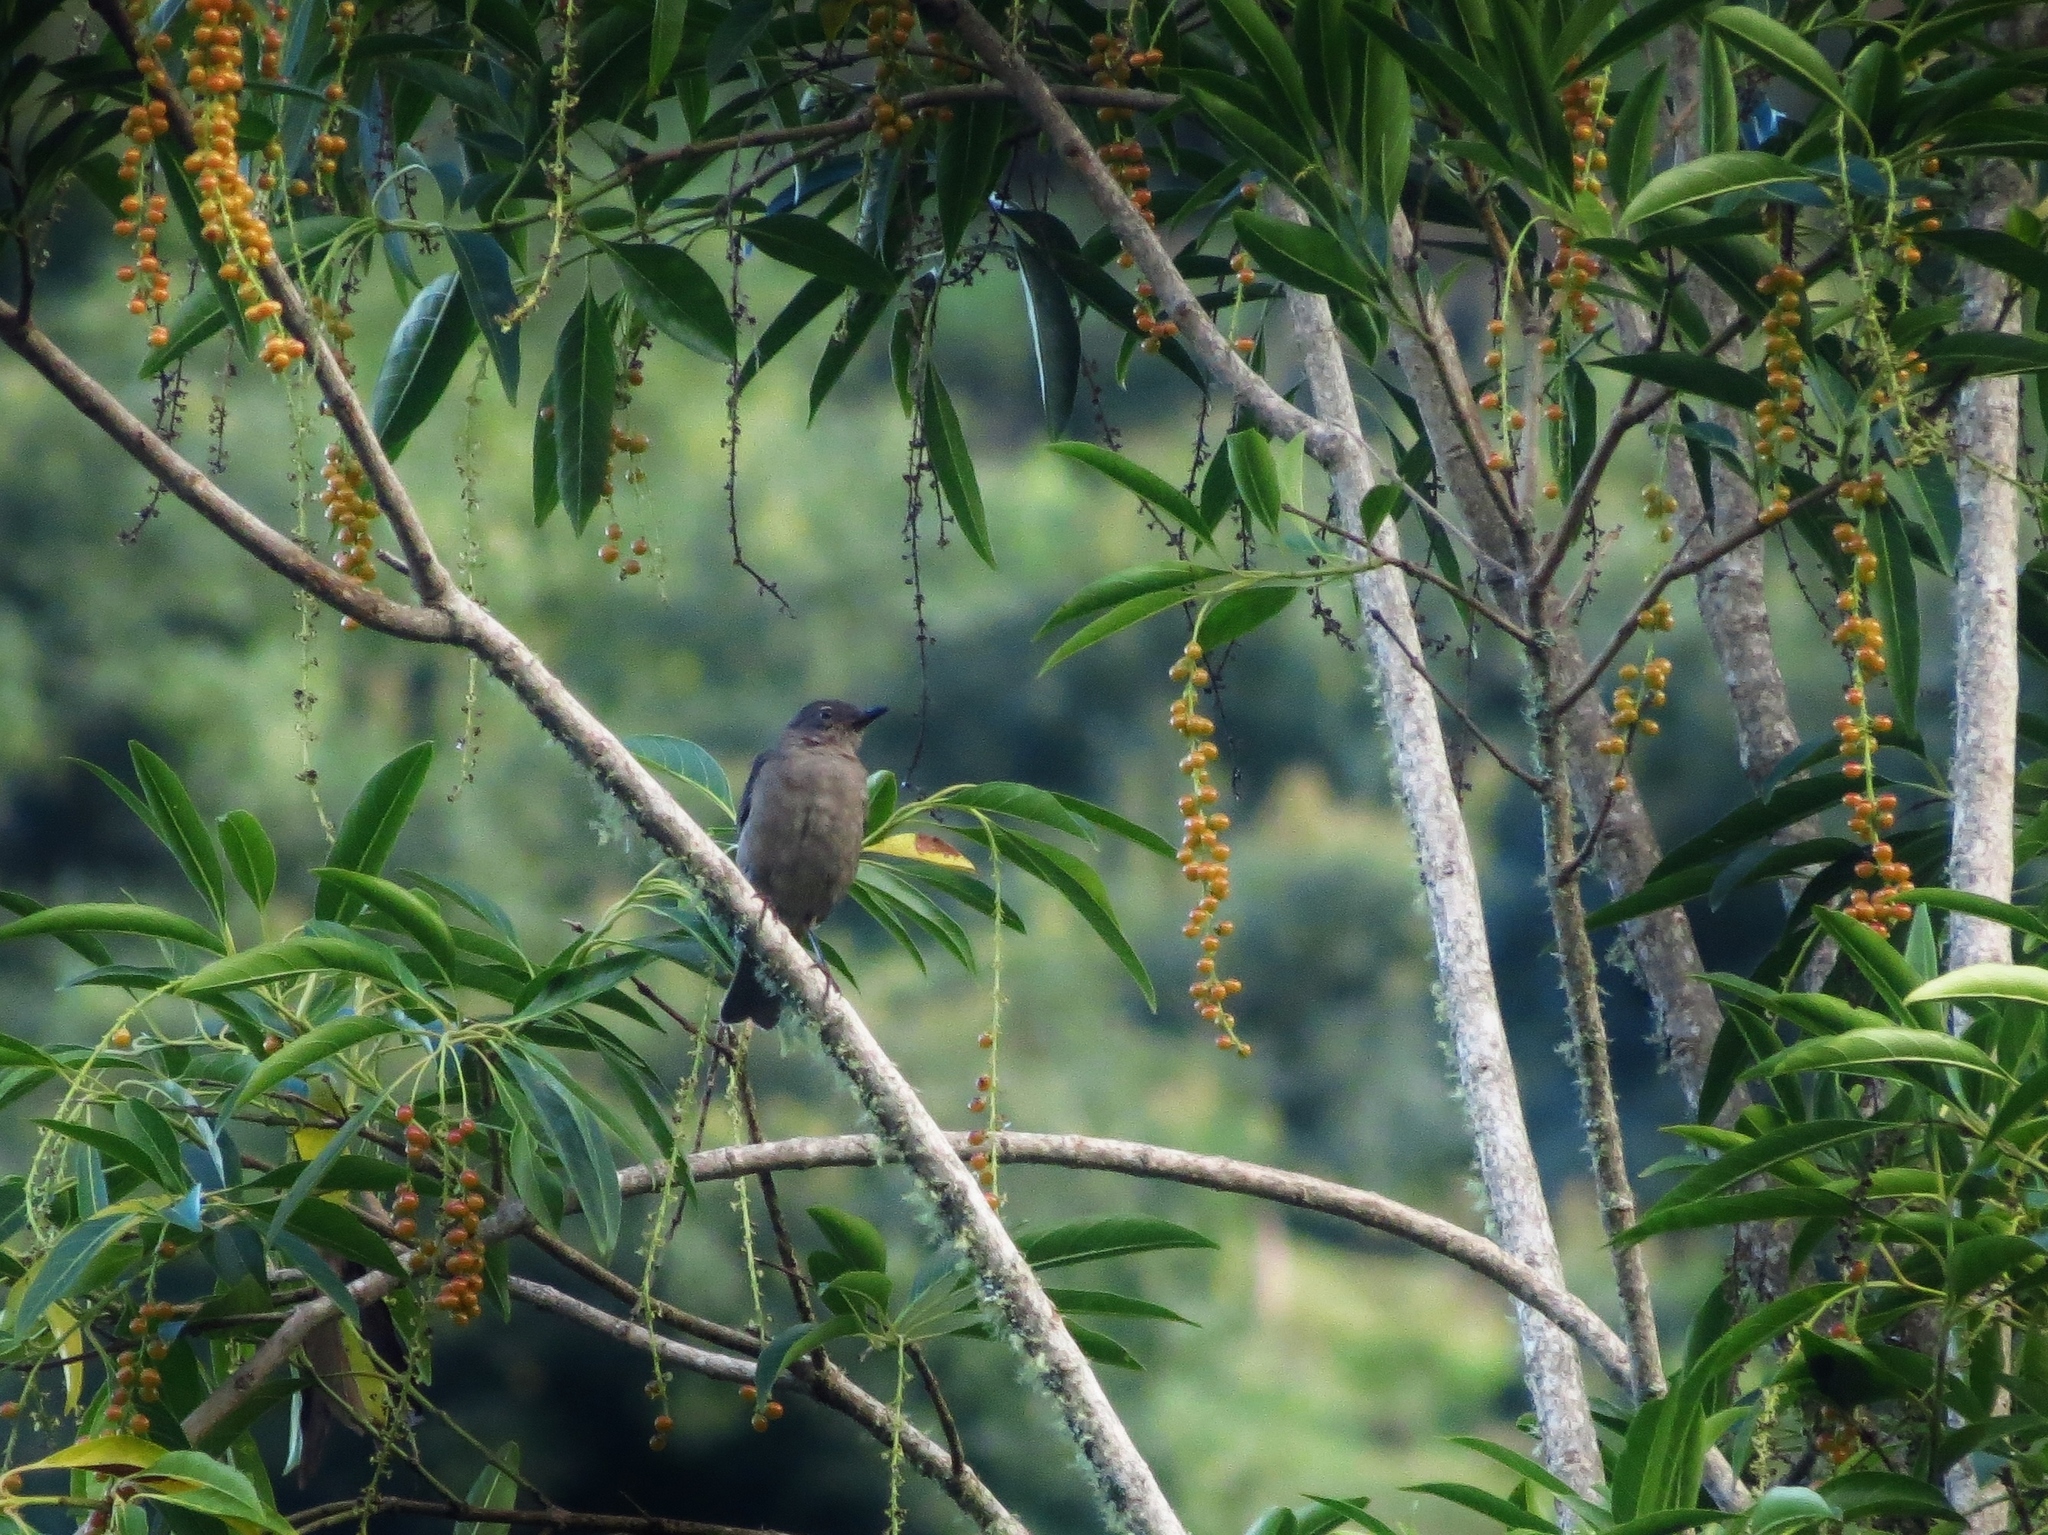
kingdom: Animalia
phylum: Chordata
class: Aves
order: Passeriformes
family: Turdidae
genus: Turdus
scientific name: Turdus plebejus
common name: Mountain thrush
